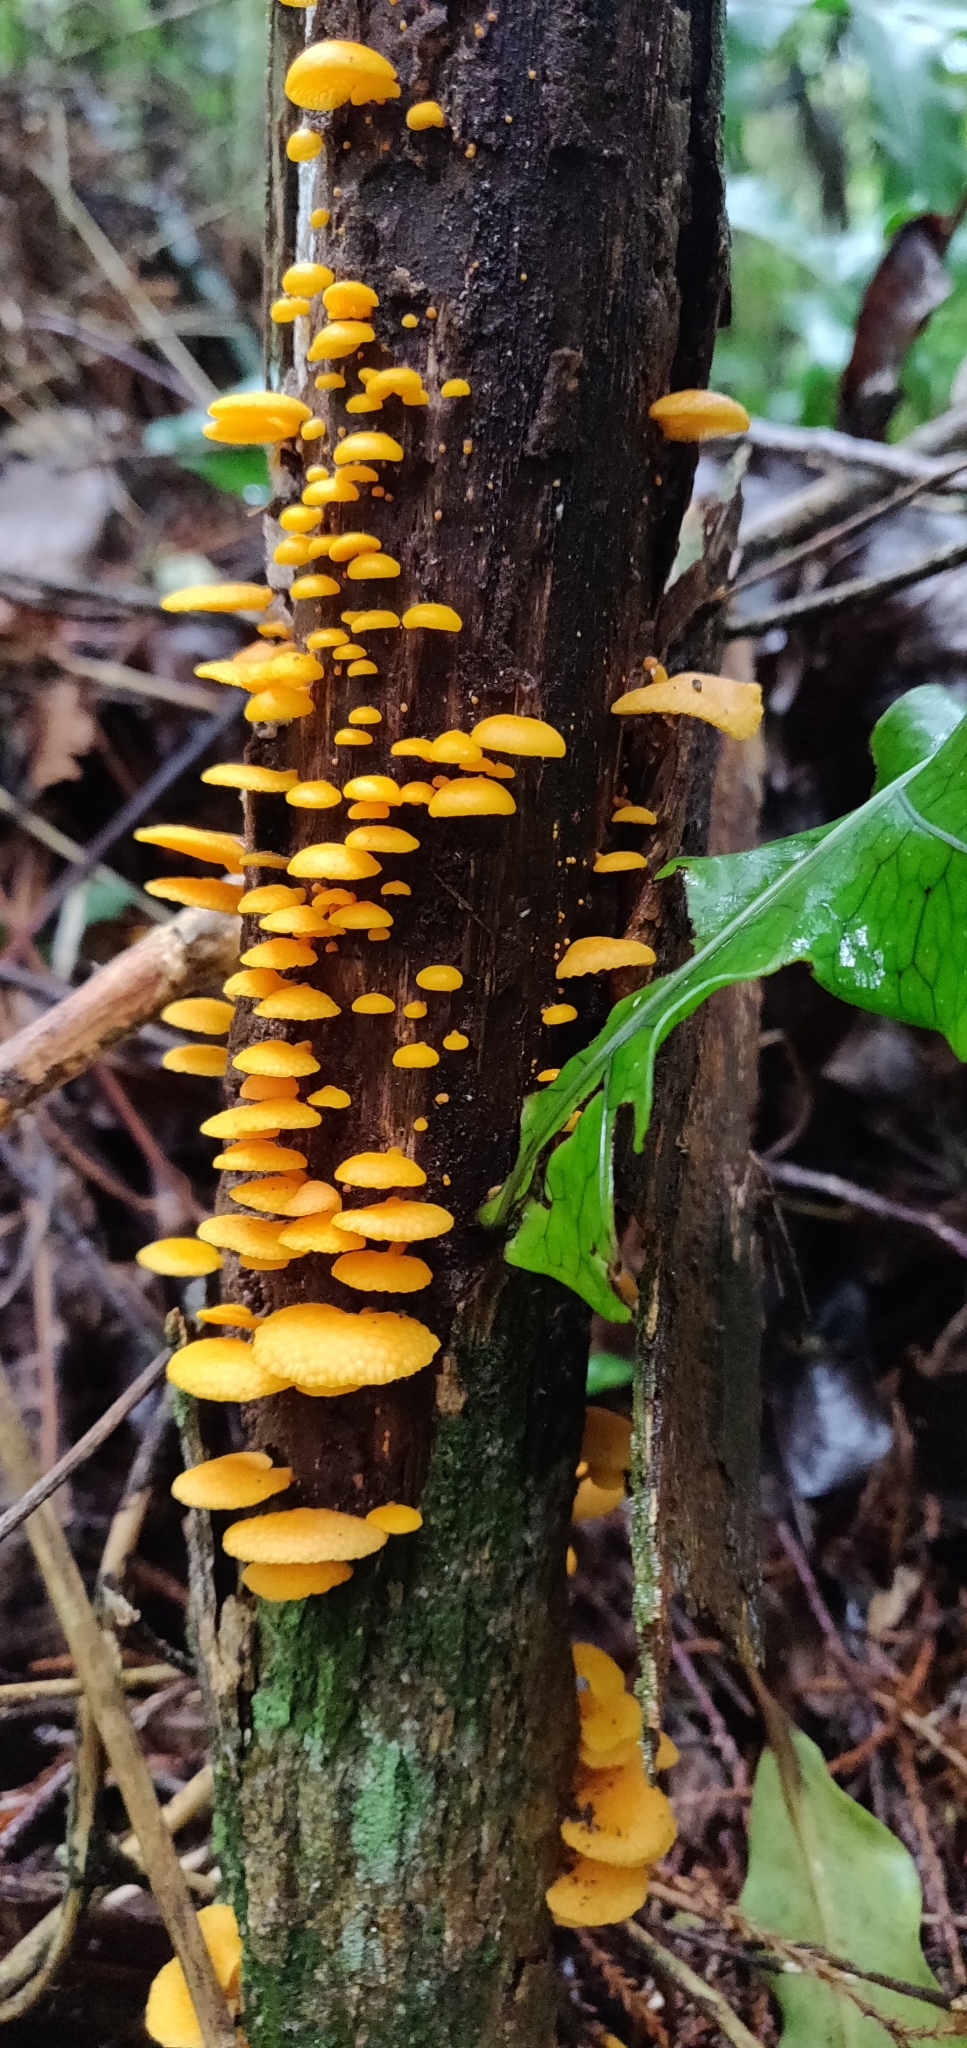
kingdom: Fungi
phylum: Basidiomycota
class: Agaricomycetes
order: Agaricales
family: Mycenaceae
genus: Favolaschia
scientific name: Favolaschia claudopus
